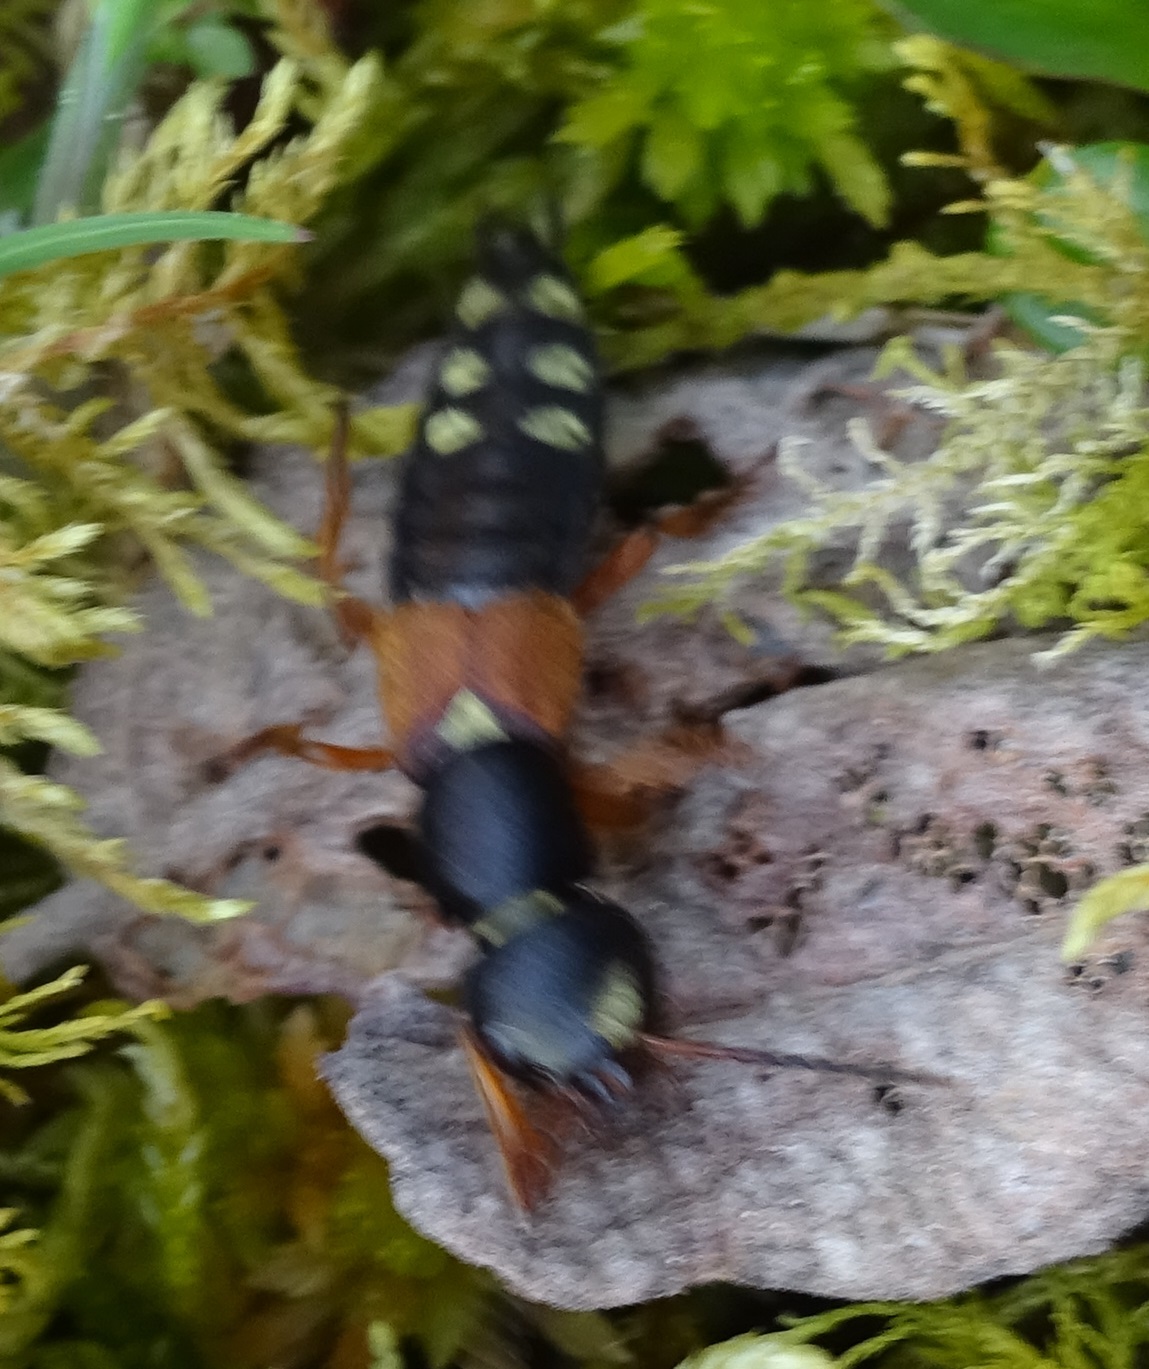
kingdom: Animalia
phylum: Arthropoda
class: Insecta
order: Coleoptera
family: Staphylinidae
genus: Staphylinus
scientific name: Staphylinus erythropterus
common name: Staph beetle
